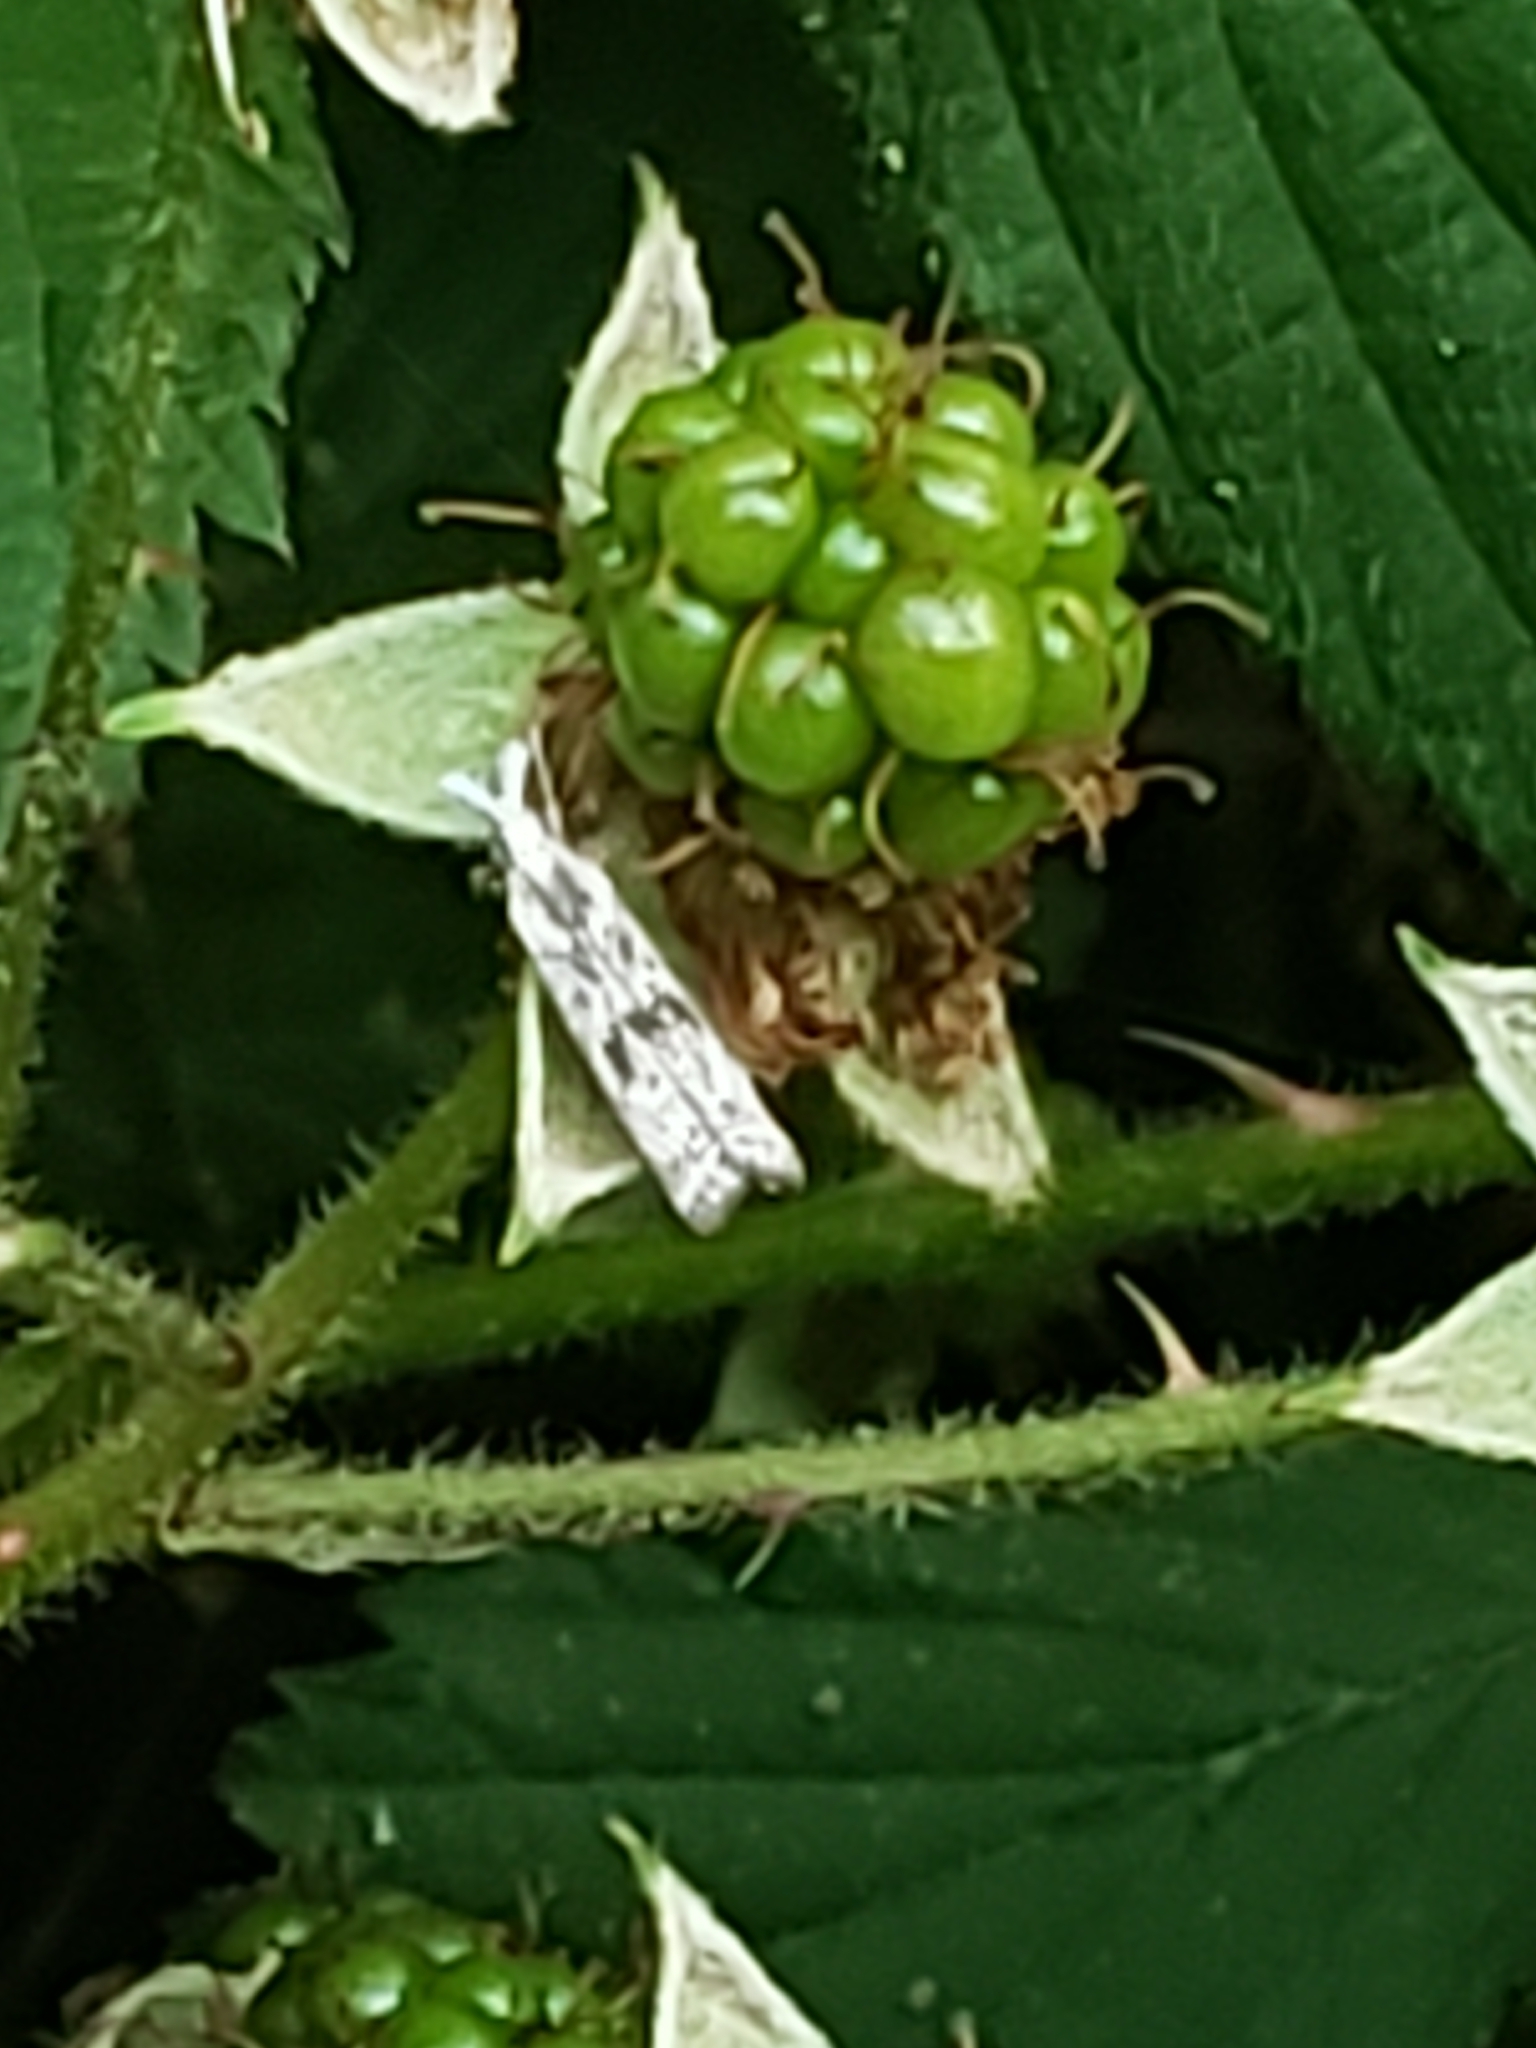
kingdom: Animalia
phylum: Arthropoda
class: Insecta
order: Lepidoptera
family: Crambidae
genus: Microcrambus
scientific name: Microcrambus elegans
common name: Elegant grass-veneer
